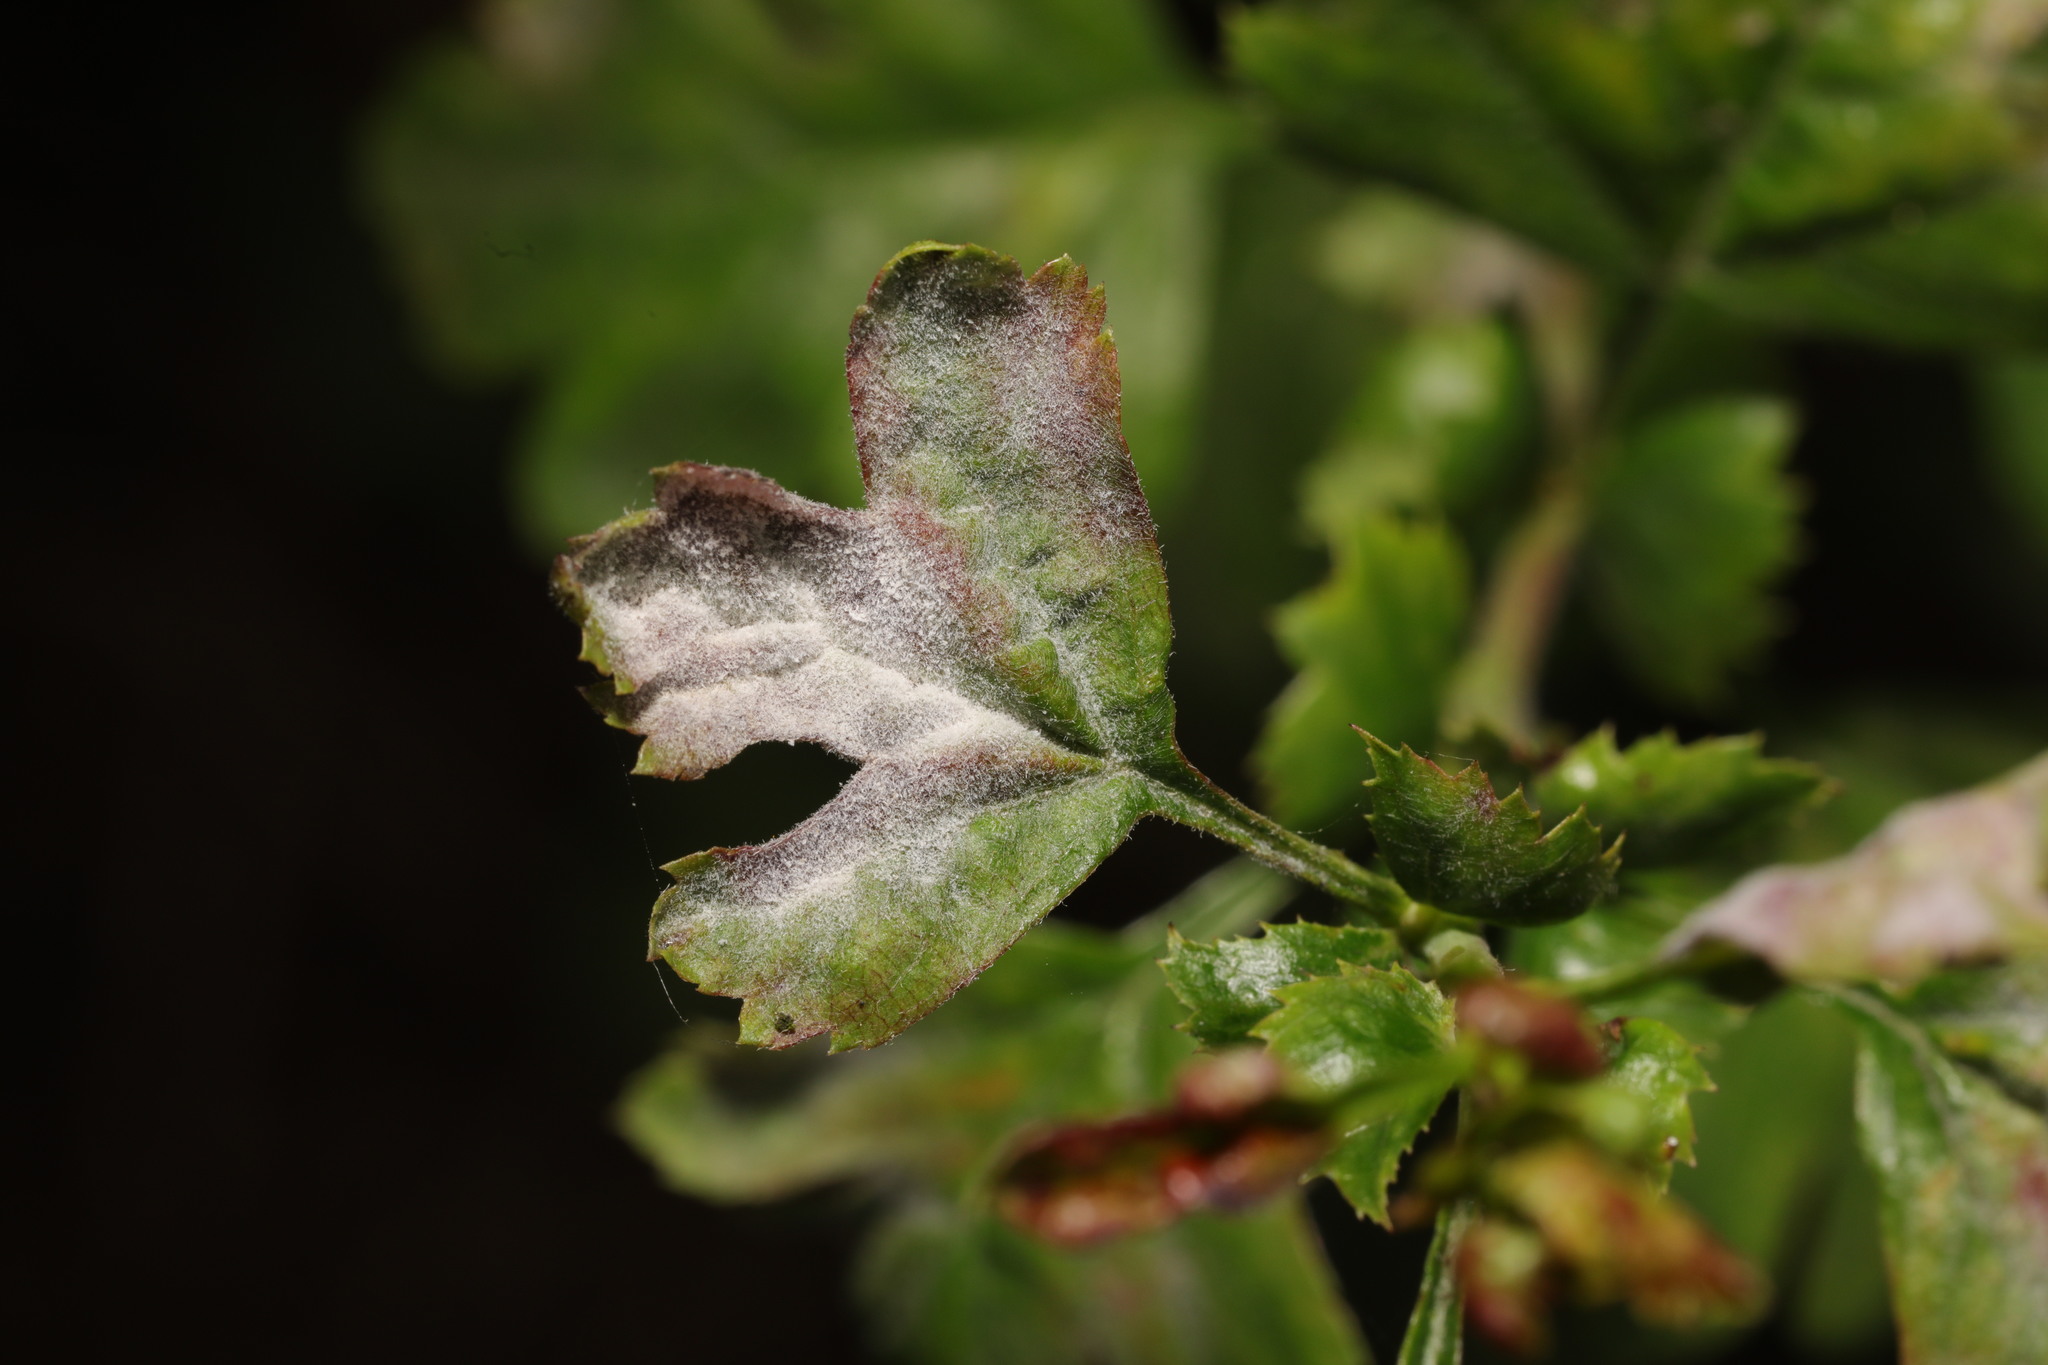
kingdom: Fungi
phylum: Ascomycota
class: Leotiomycetes
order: Helotiales
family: Erysiphaceae
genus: Podosphaera
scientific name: Podosphaera clandestina
